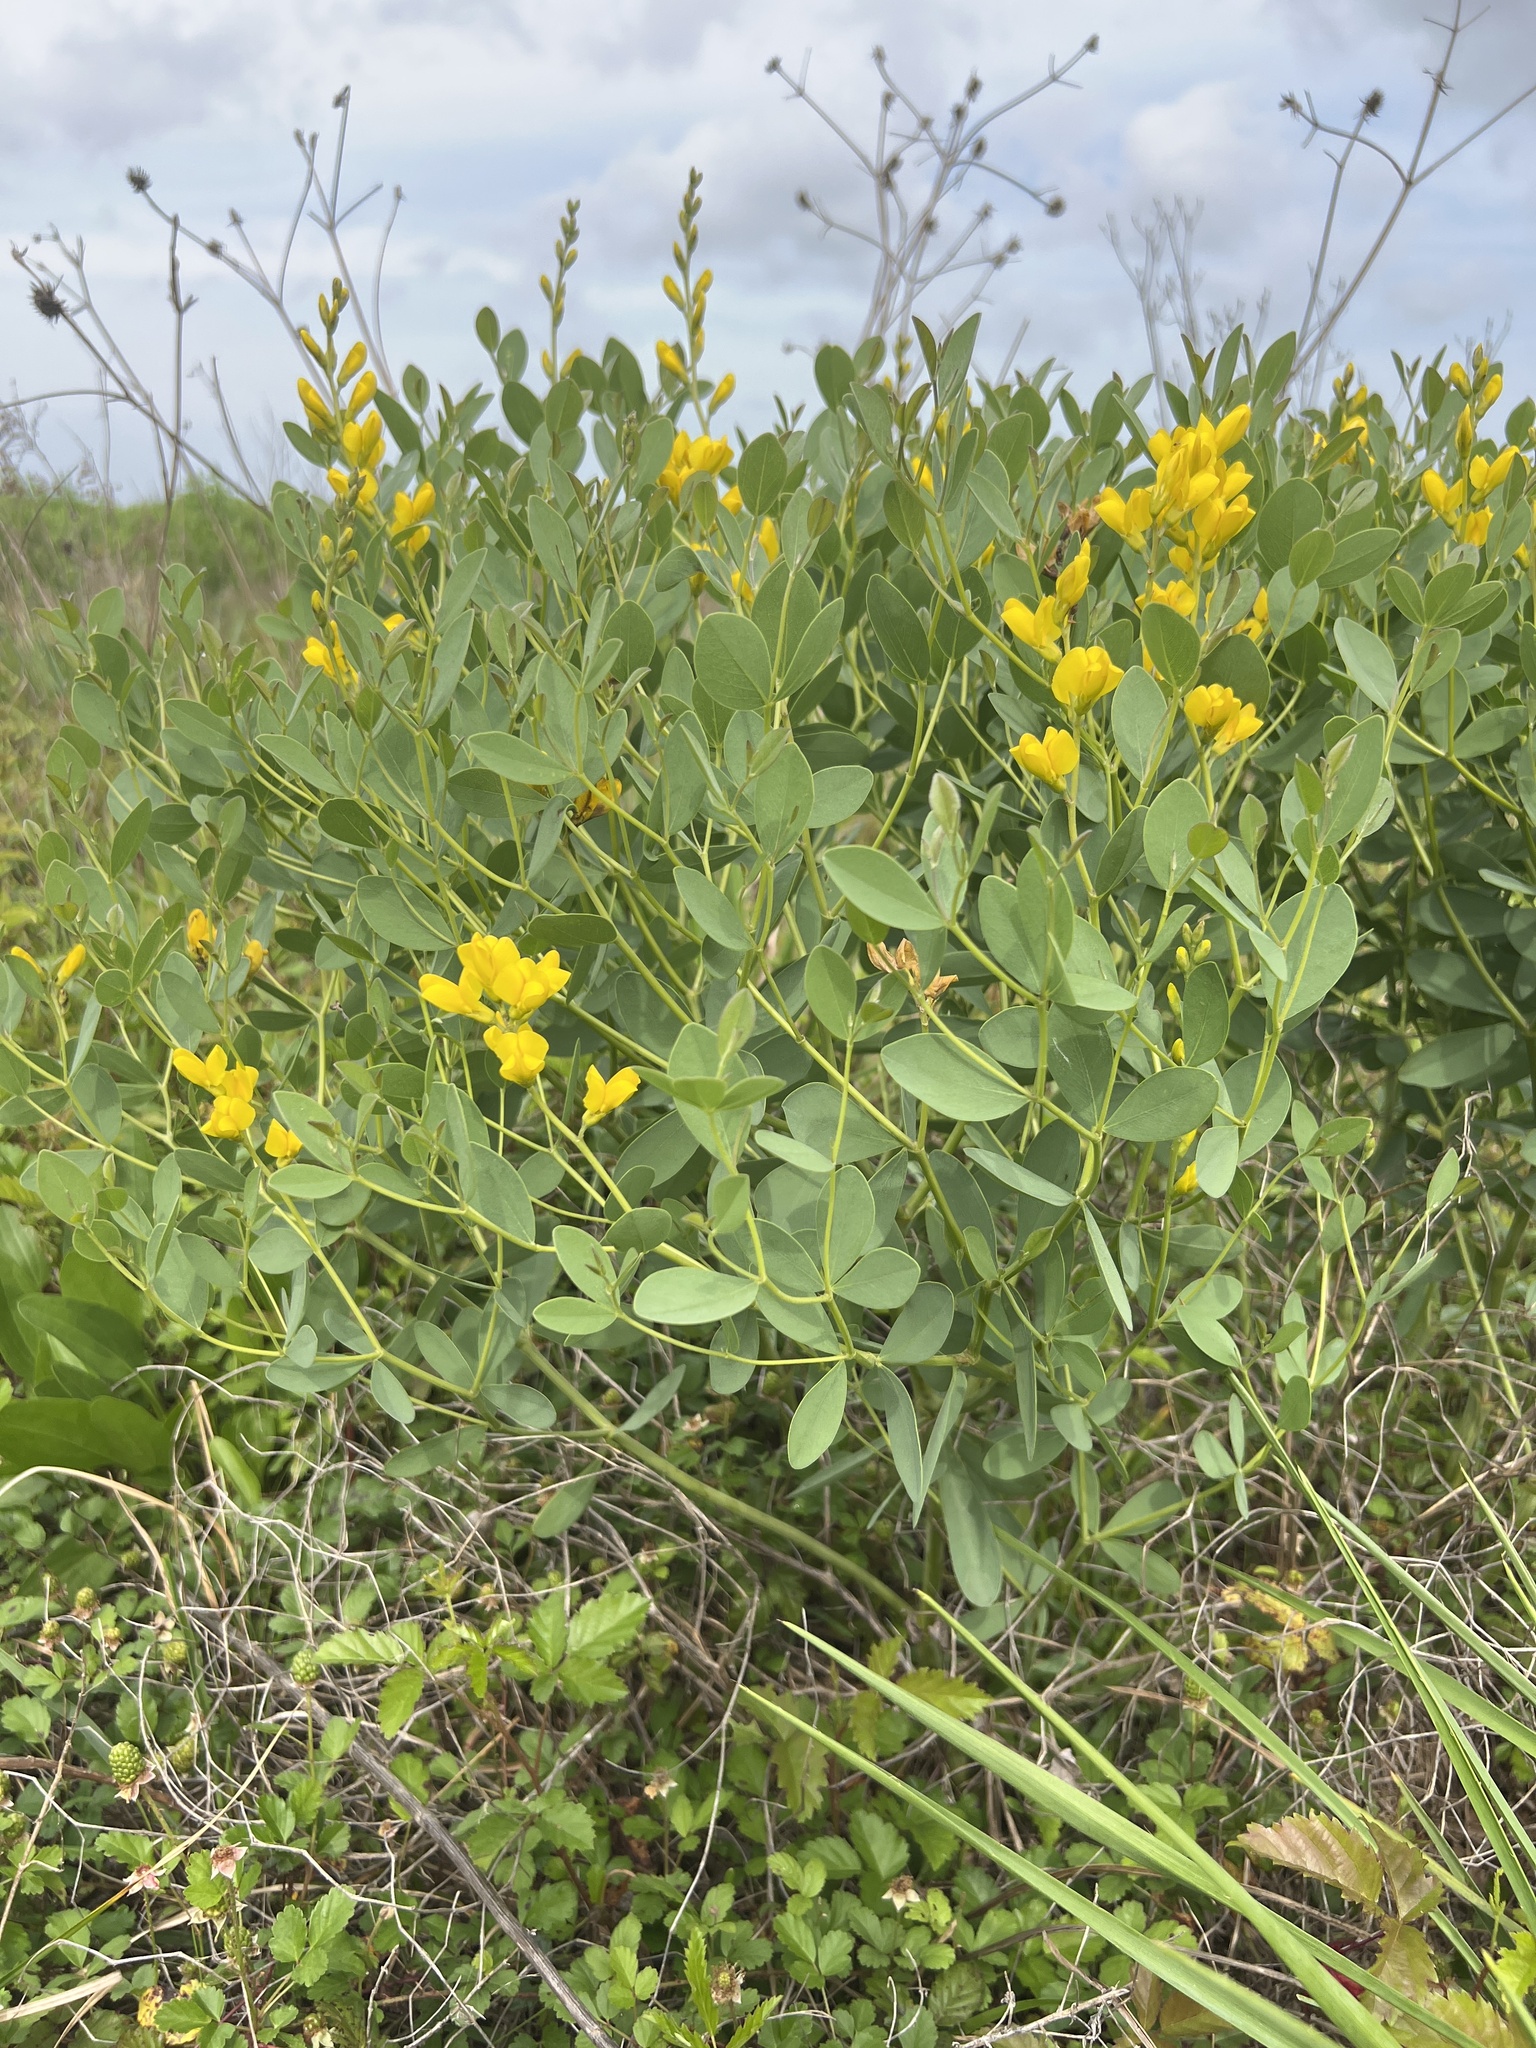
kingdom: Plantae
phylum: Tracheophyta
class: Magnoliopsida
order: Fabales
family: Fabaceae
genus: Baptisia
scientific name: Baptisia sphaerocarpa
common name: Round wild indigo
